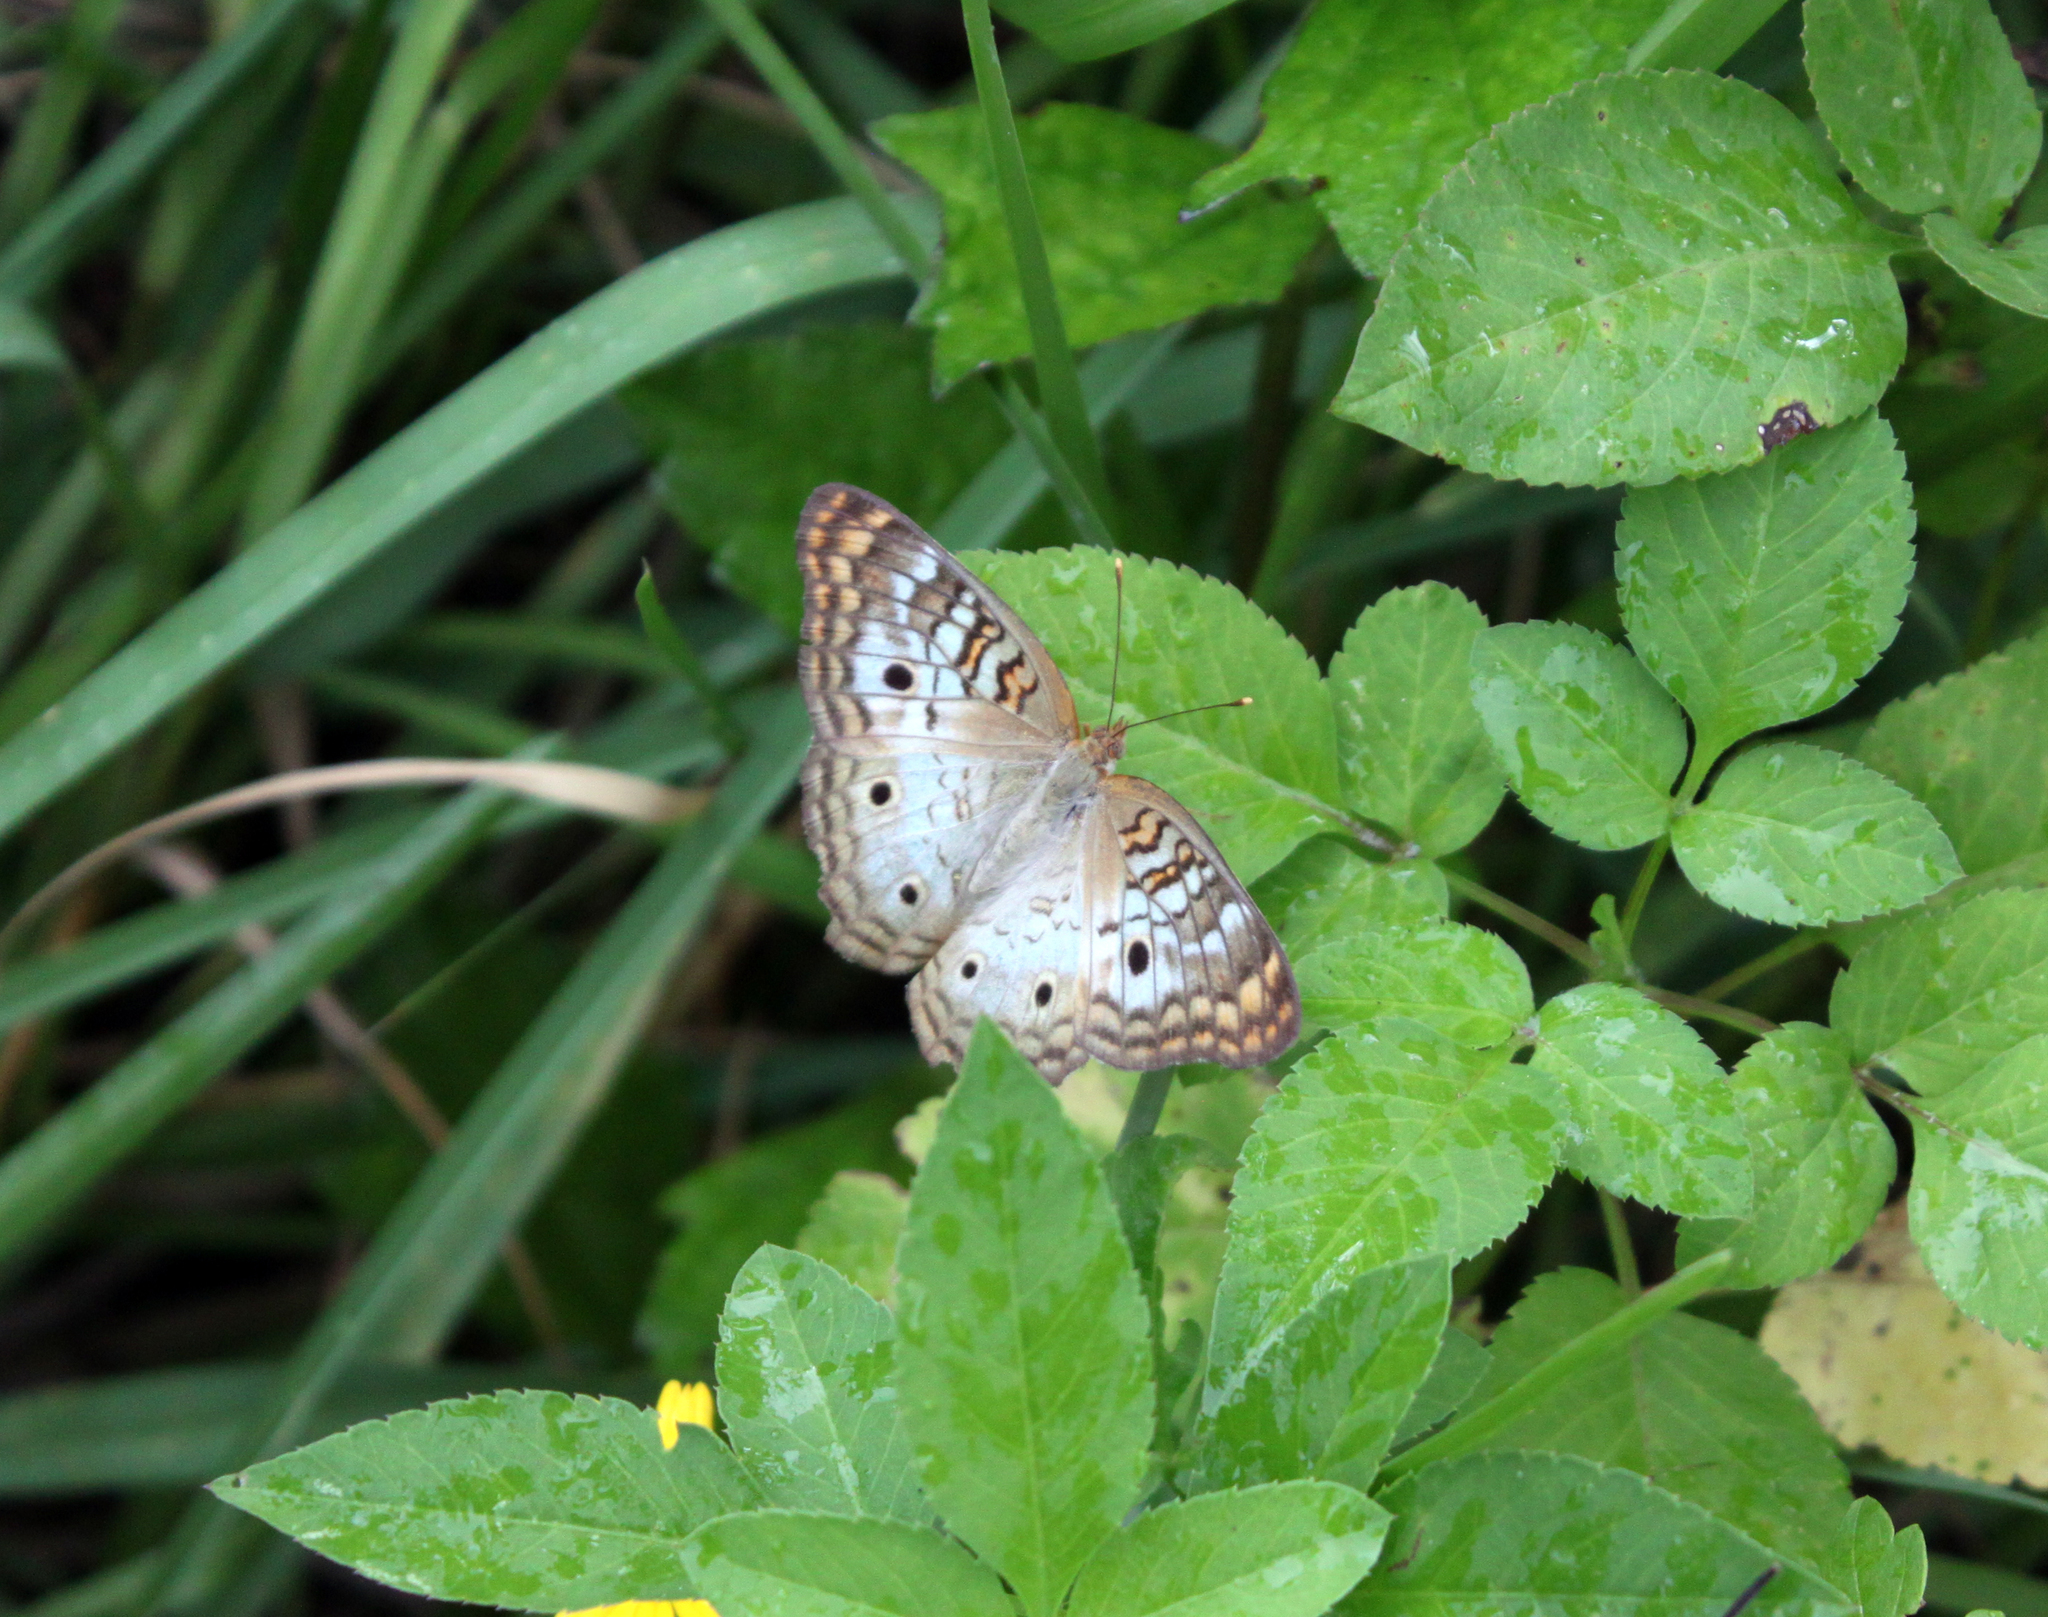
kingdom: Animalia
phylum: Arthropoda
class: Insecta
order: Lepidoptera
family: Nymphalidae
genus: Anartia
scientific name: Anartia jatrophae
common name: White peacock
